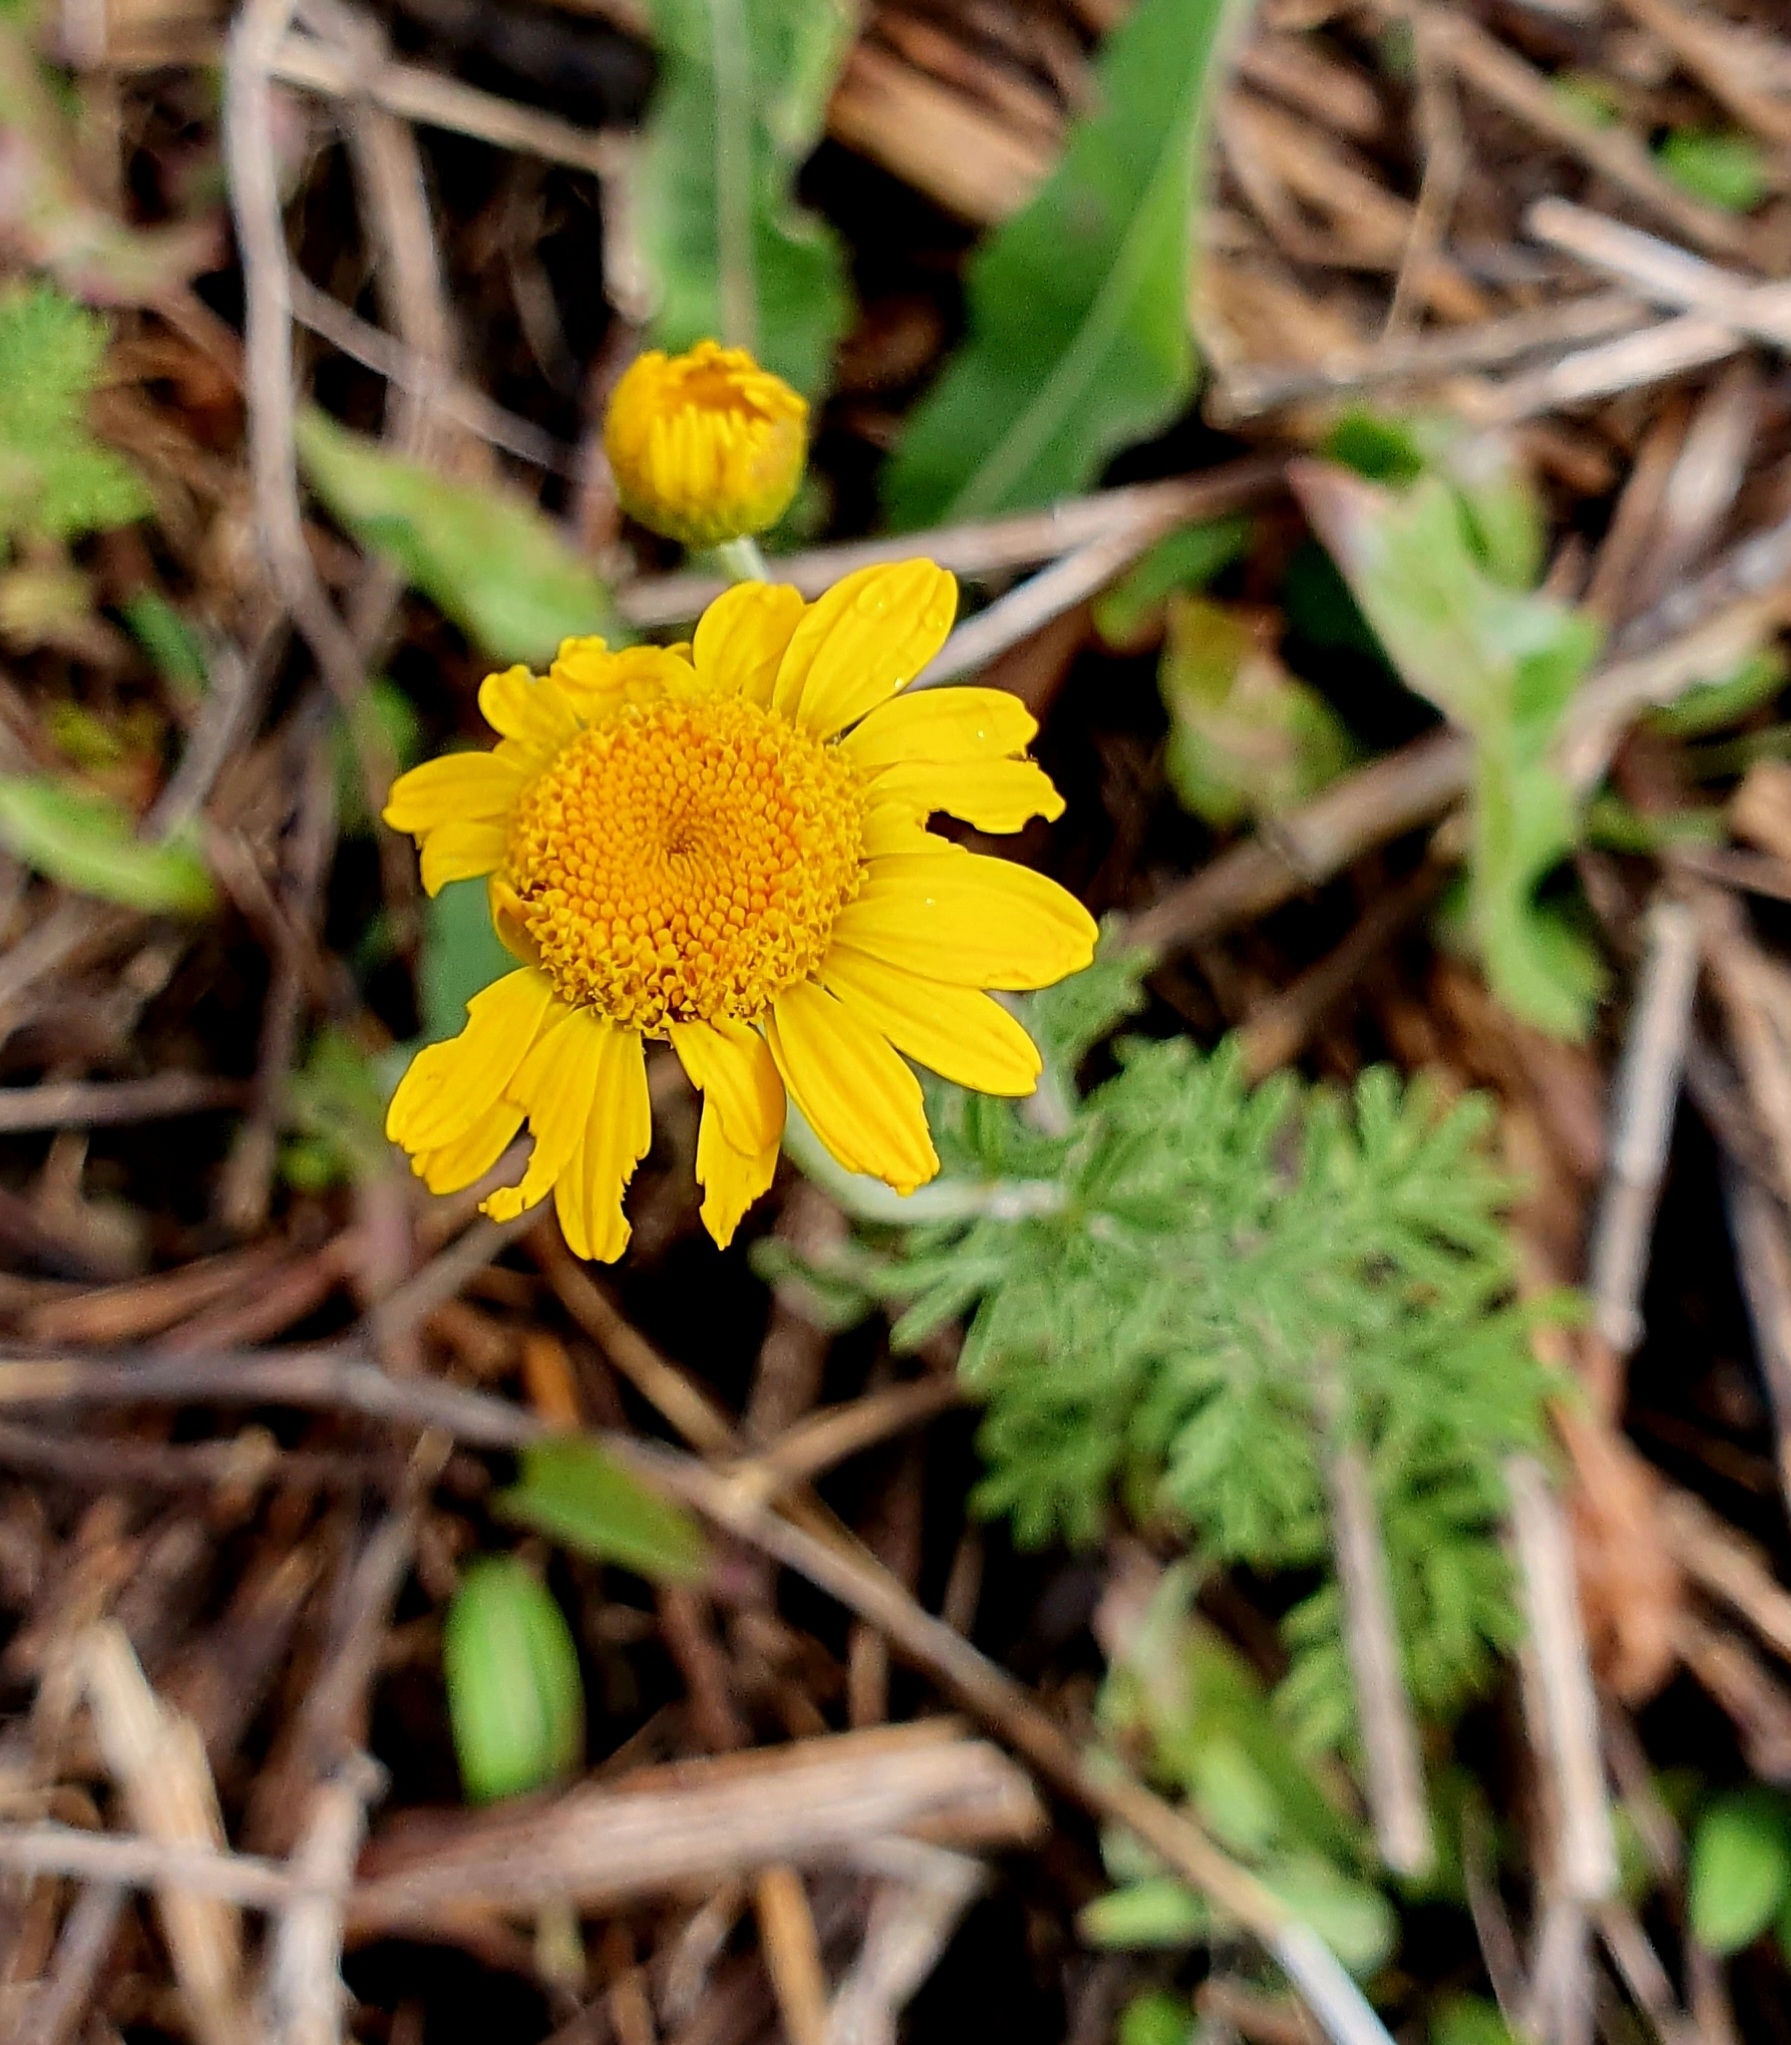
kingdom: Plantae
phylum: Tracheophyta
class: Magnoliopsida
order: Asterales
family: Asteraceae
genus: Cota
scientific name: Cota tinctoria
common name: Golden chamomile
